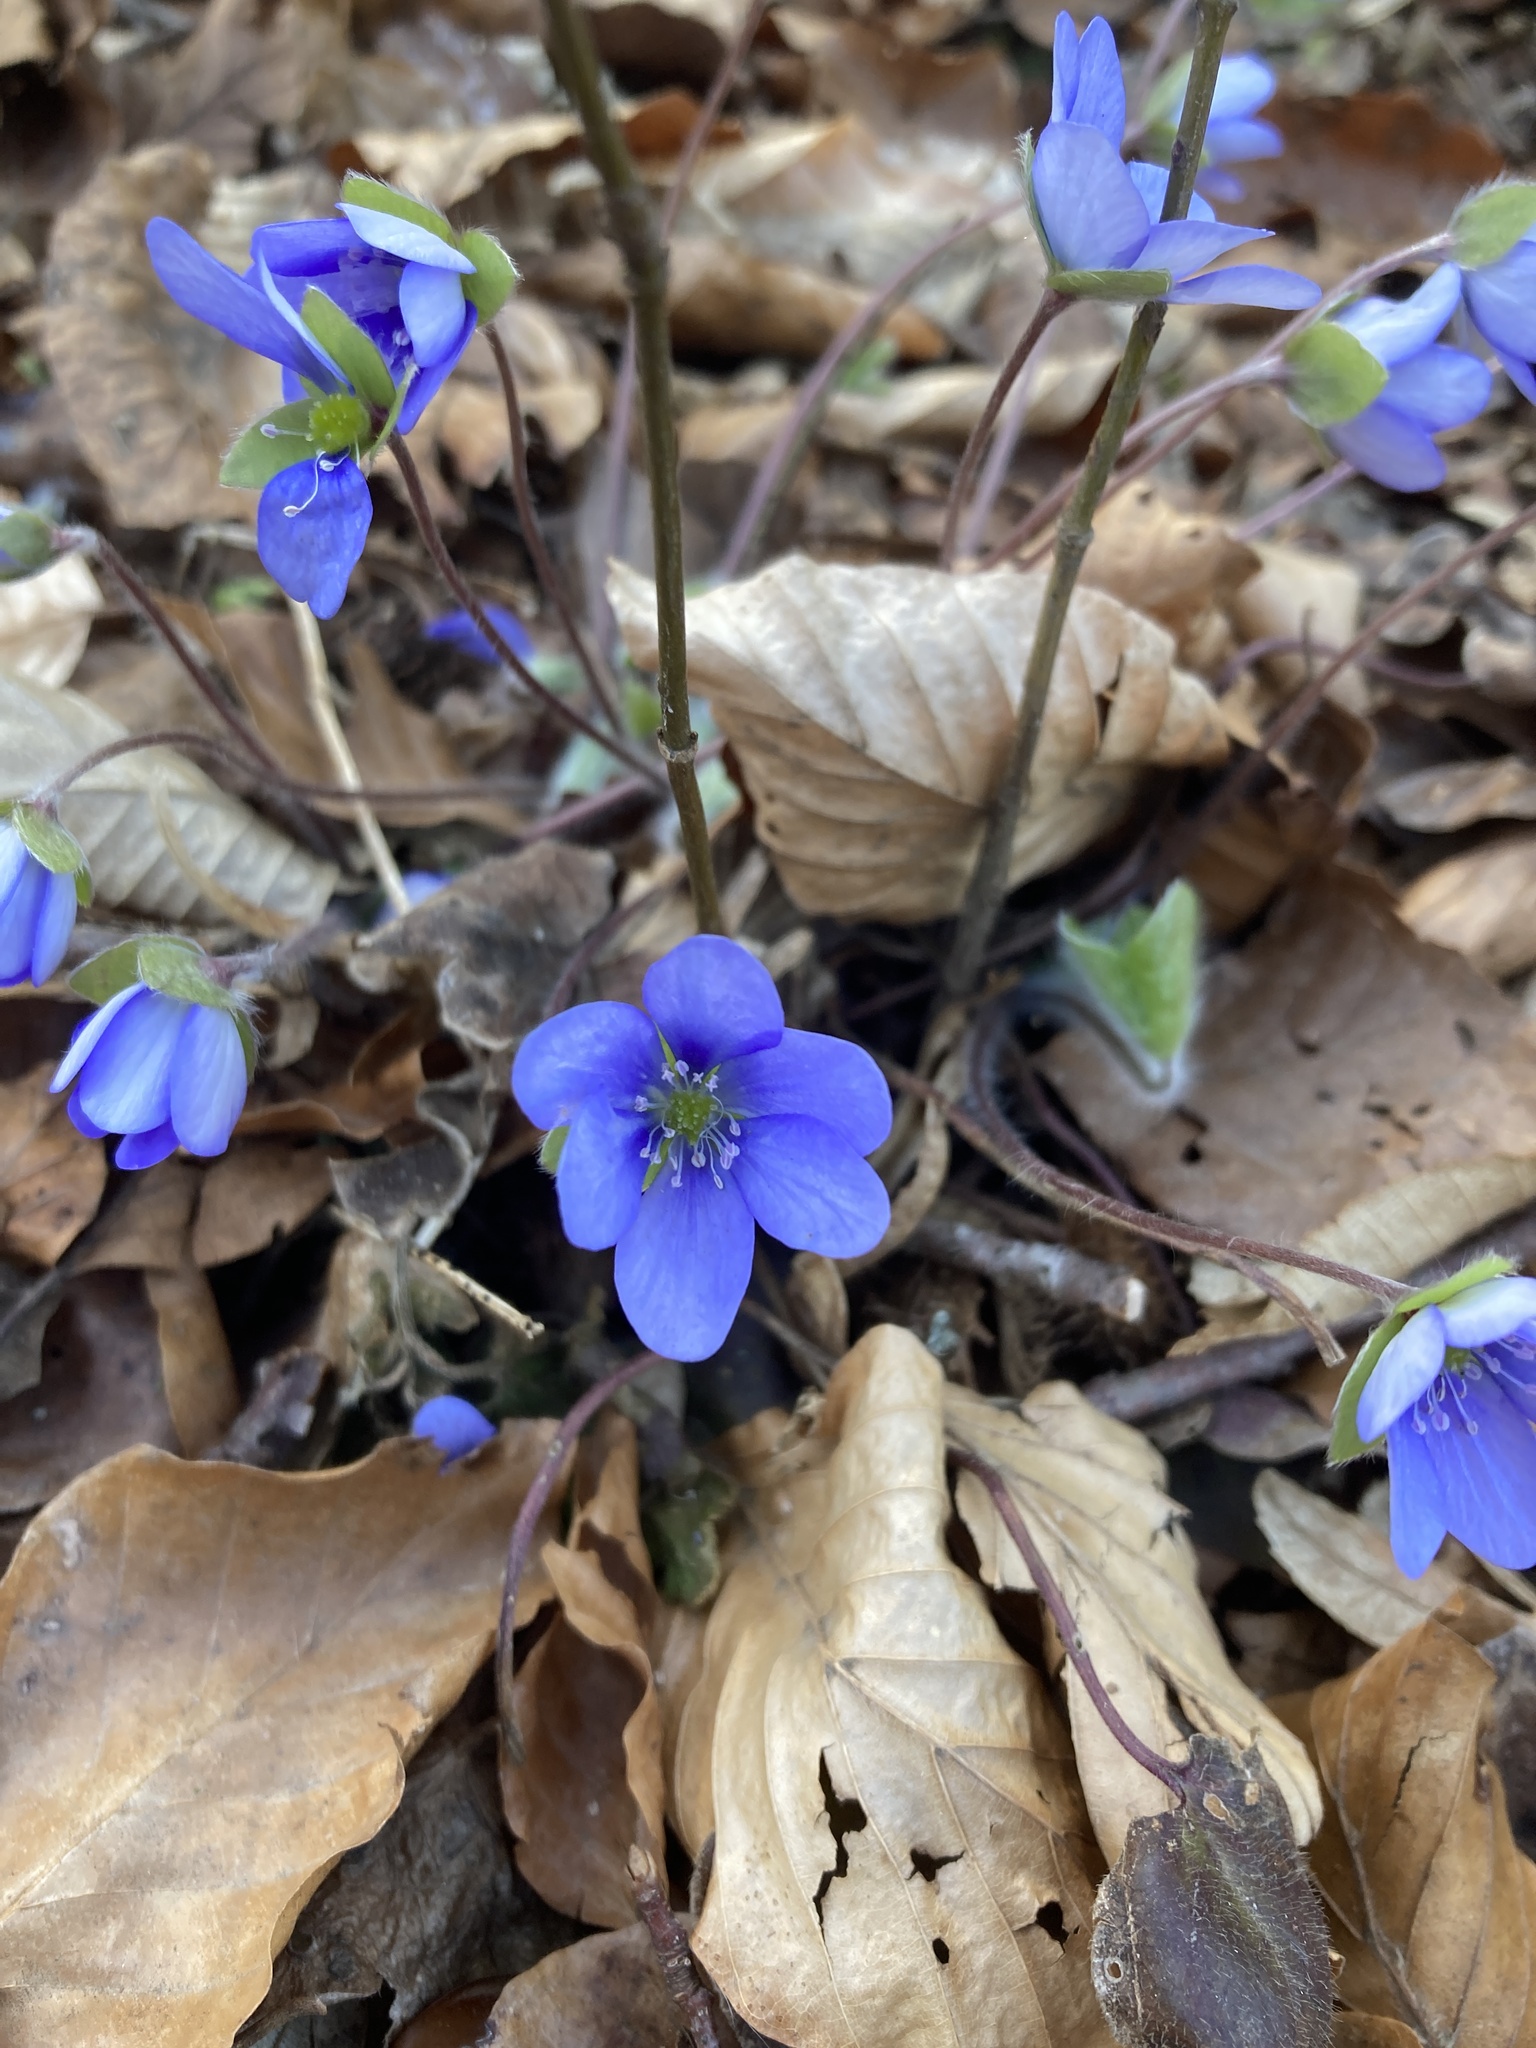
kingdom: Plantae
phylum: Tracheophyta
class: Magnoliopsida
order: Ranunculales
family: Ranunculaceae
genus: Hepatica
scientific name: Hepatica nobilis
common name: Liverleaf
